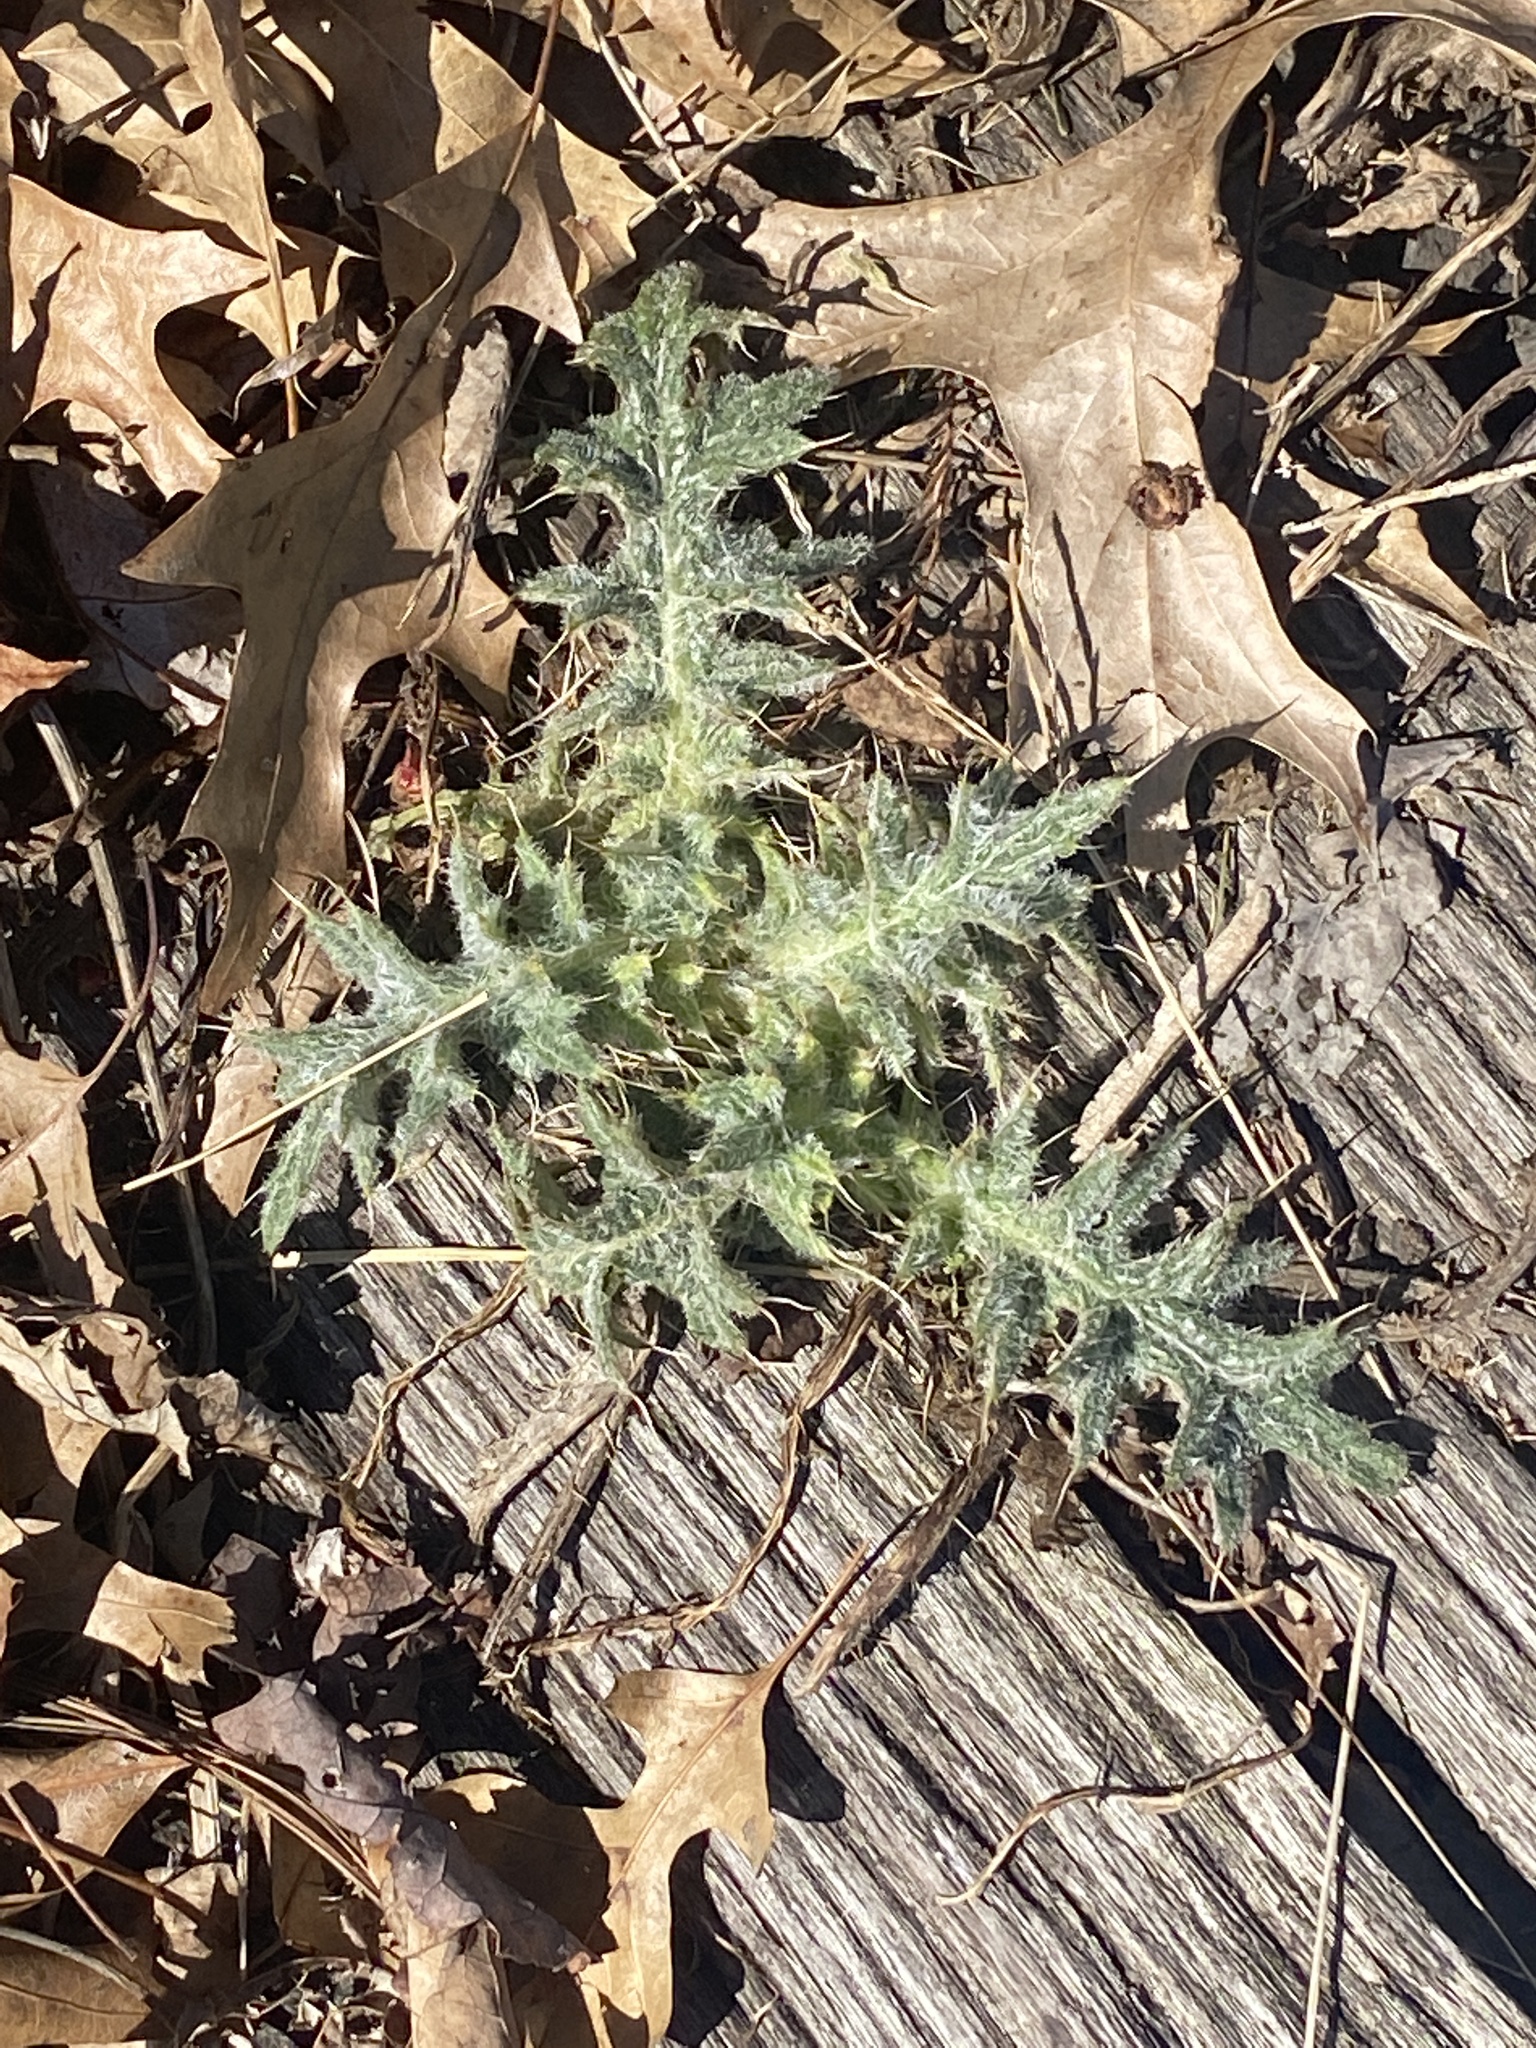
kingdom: Plantae
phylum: Tracheophyta
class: Magnoliopsida
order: Asterales
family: Asteraceae
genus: Cirsium
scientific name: Cirsium vulgare
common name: Bull thistle
